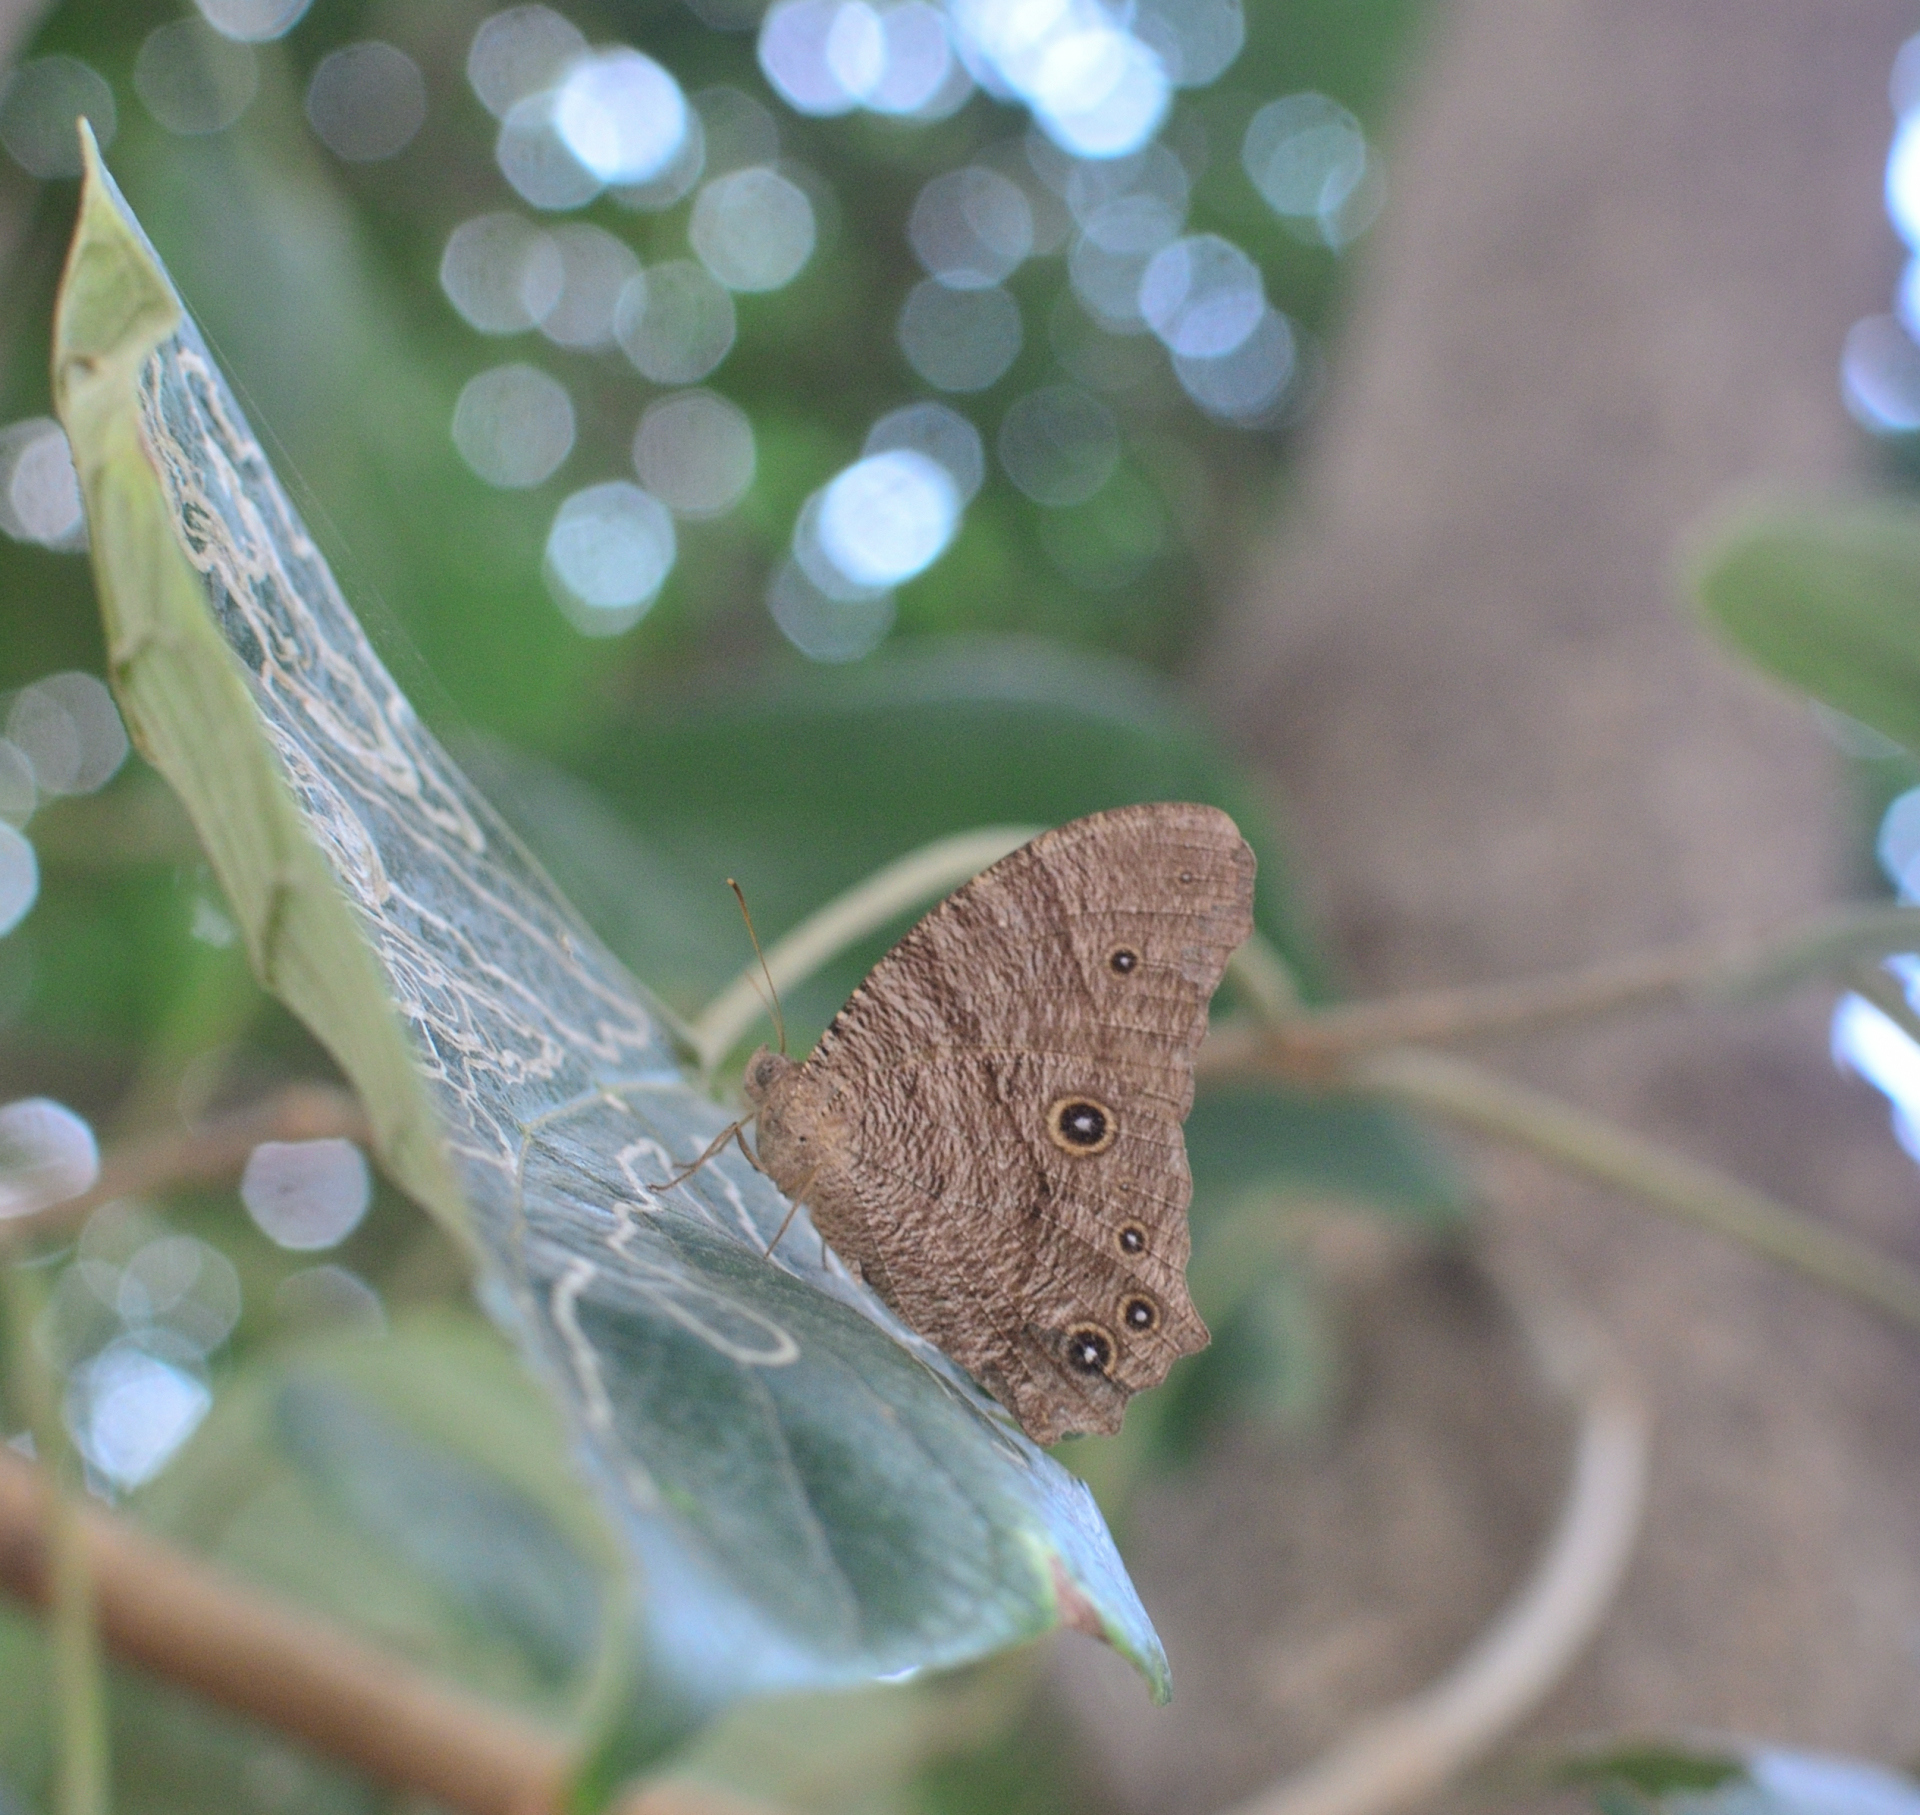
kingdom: Animalia
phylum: Arthropoda
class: Insecta
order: Lepidoptera
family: Nymphalidae
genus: Melanitis
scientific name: Melanitis leda
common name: Twilight brown
